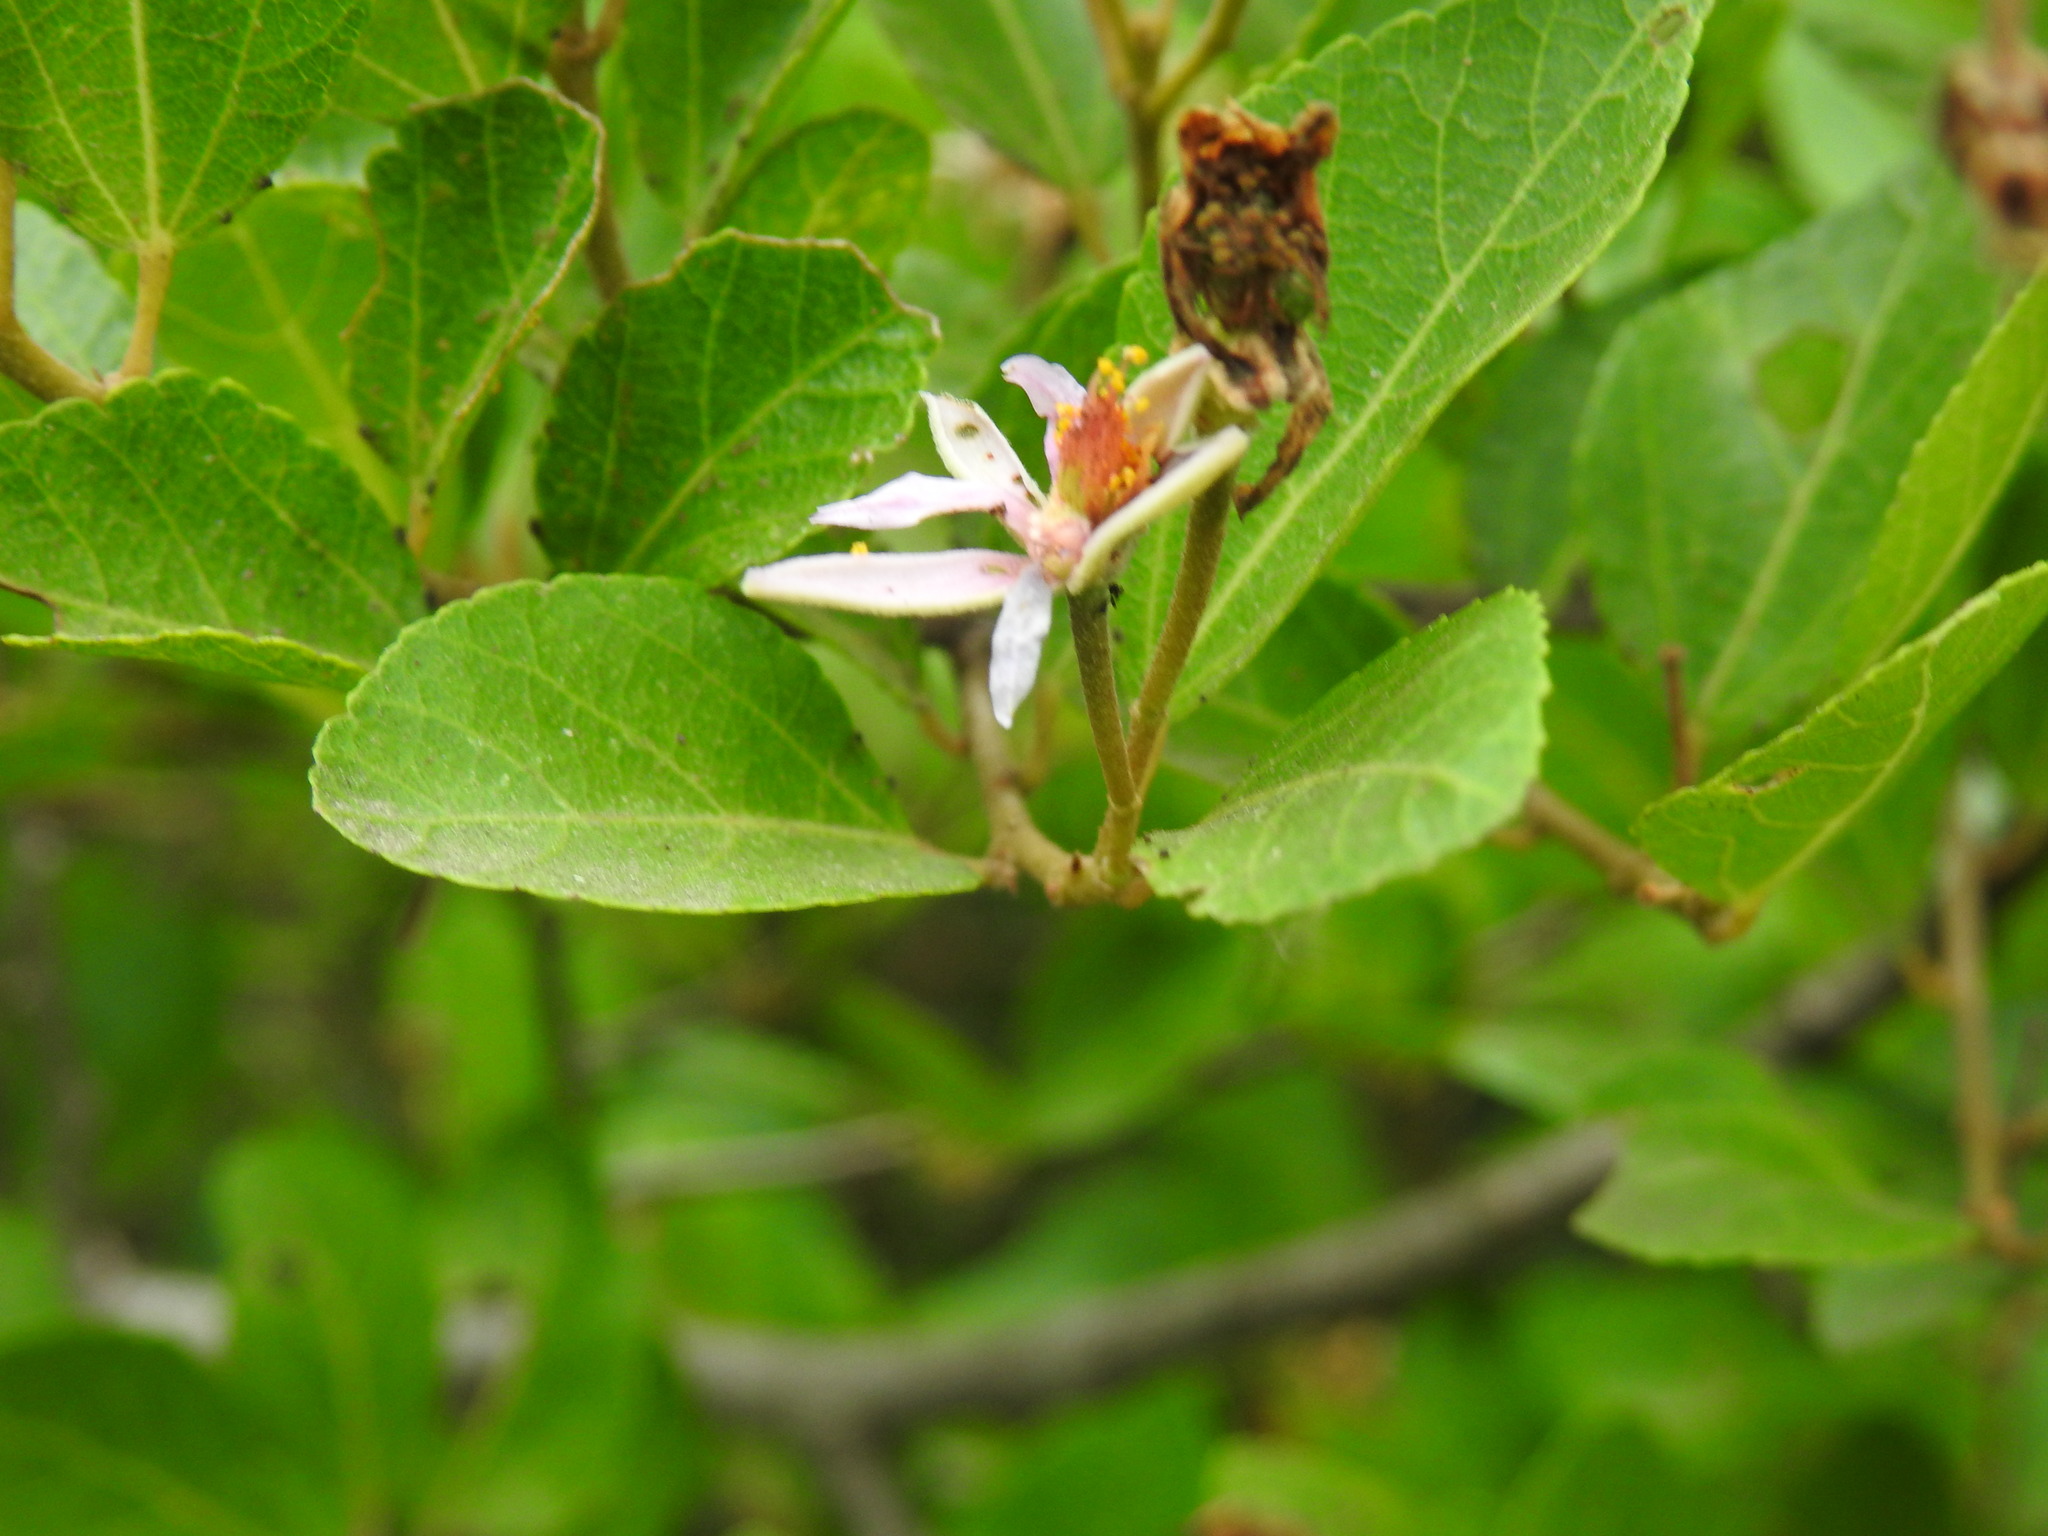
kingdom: Plantae
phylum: Tracheophyta
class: Magnoliopsida
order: Malvales
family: Malvaceae
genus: Grewia
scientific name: Grewia occidentalis
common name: Crossberry
